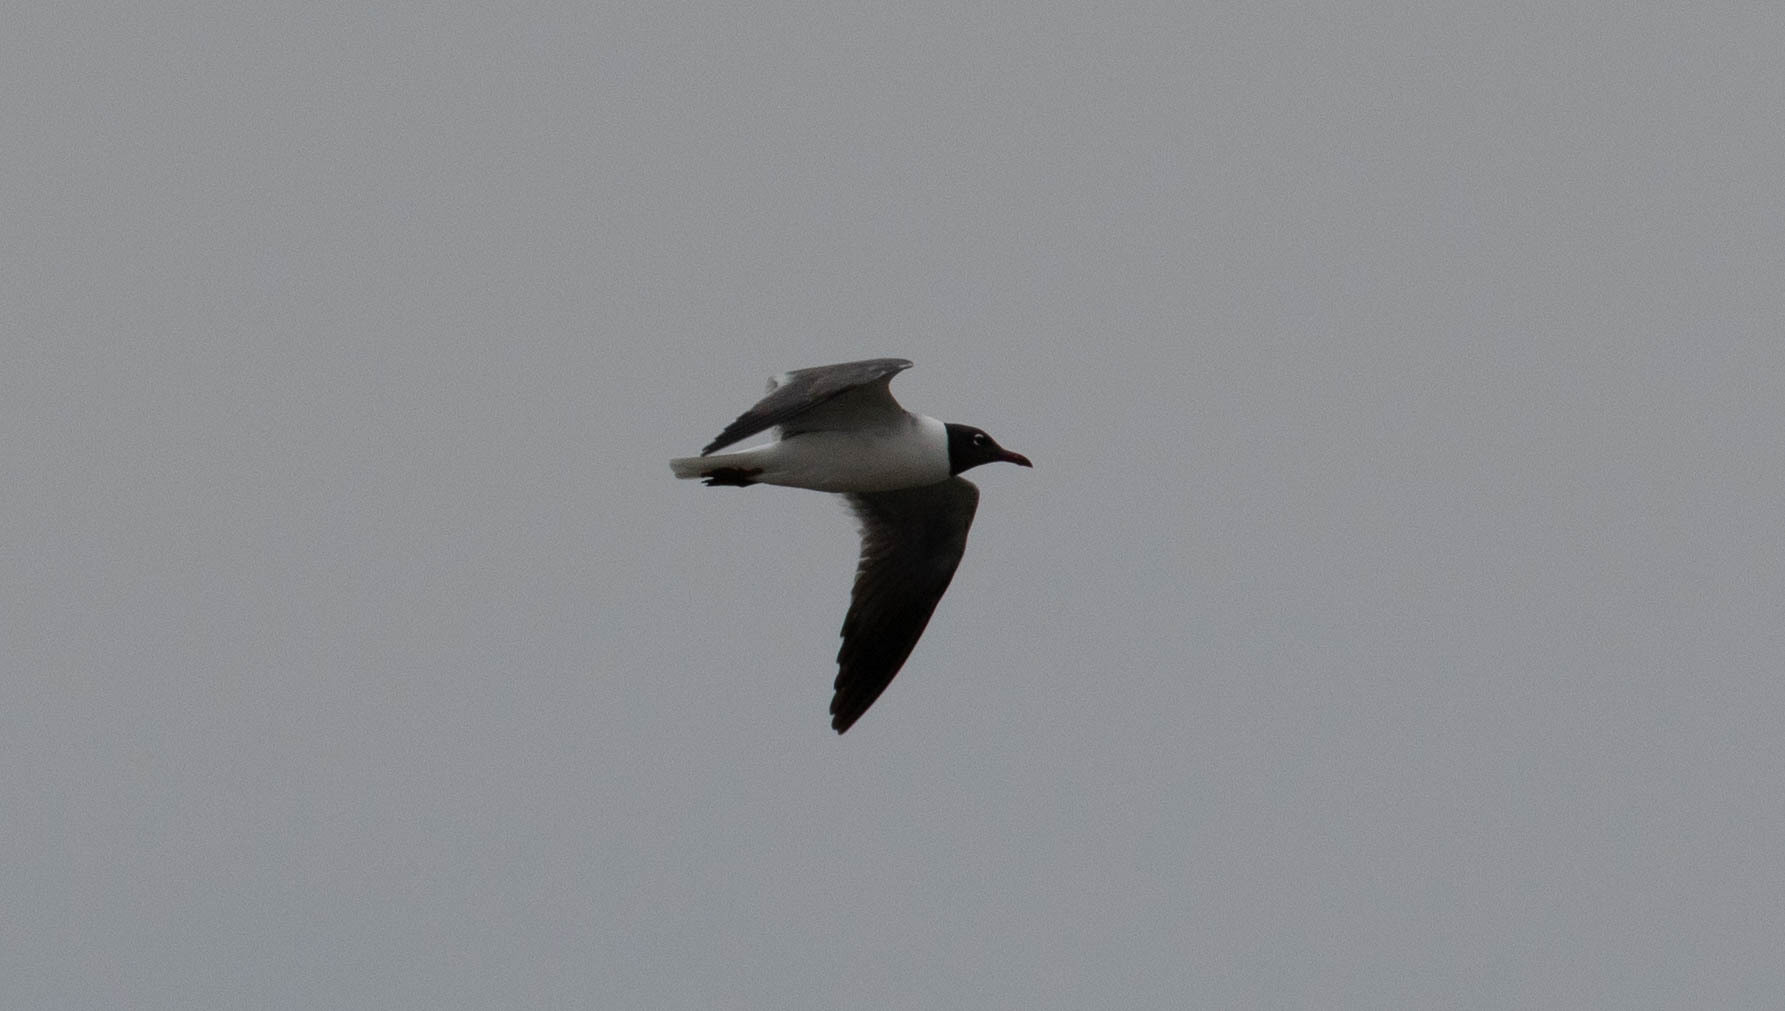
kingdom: Animalia
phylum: Chordata
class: Aves
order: Charadriiformes
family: Laridae
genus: Leucophaeus
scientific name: Leucophaeus atricilla
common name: Laughing gull
